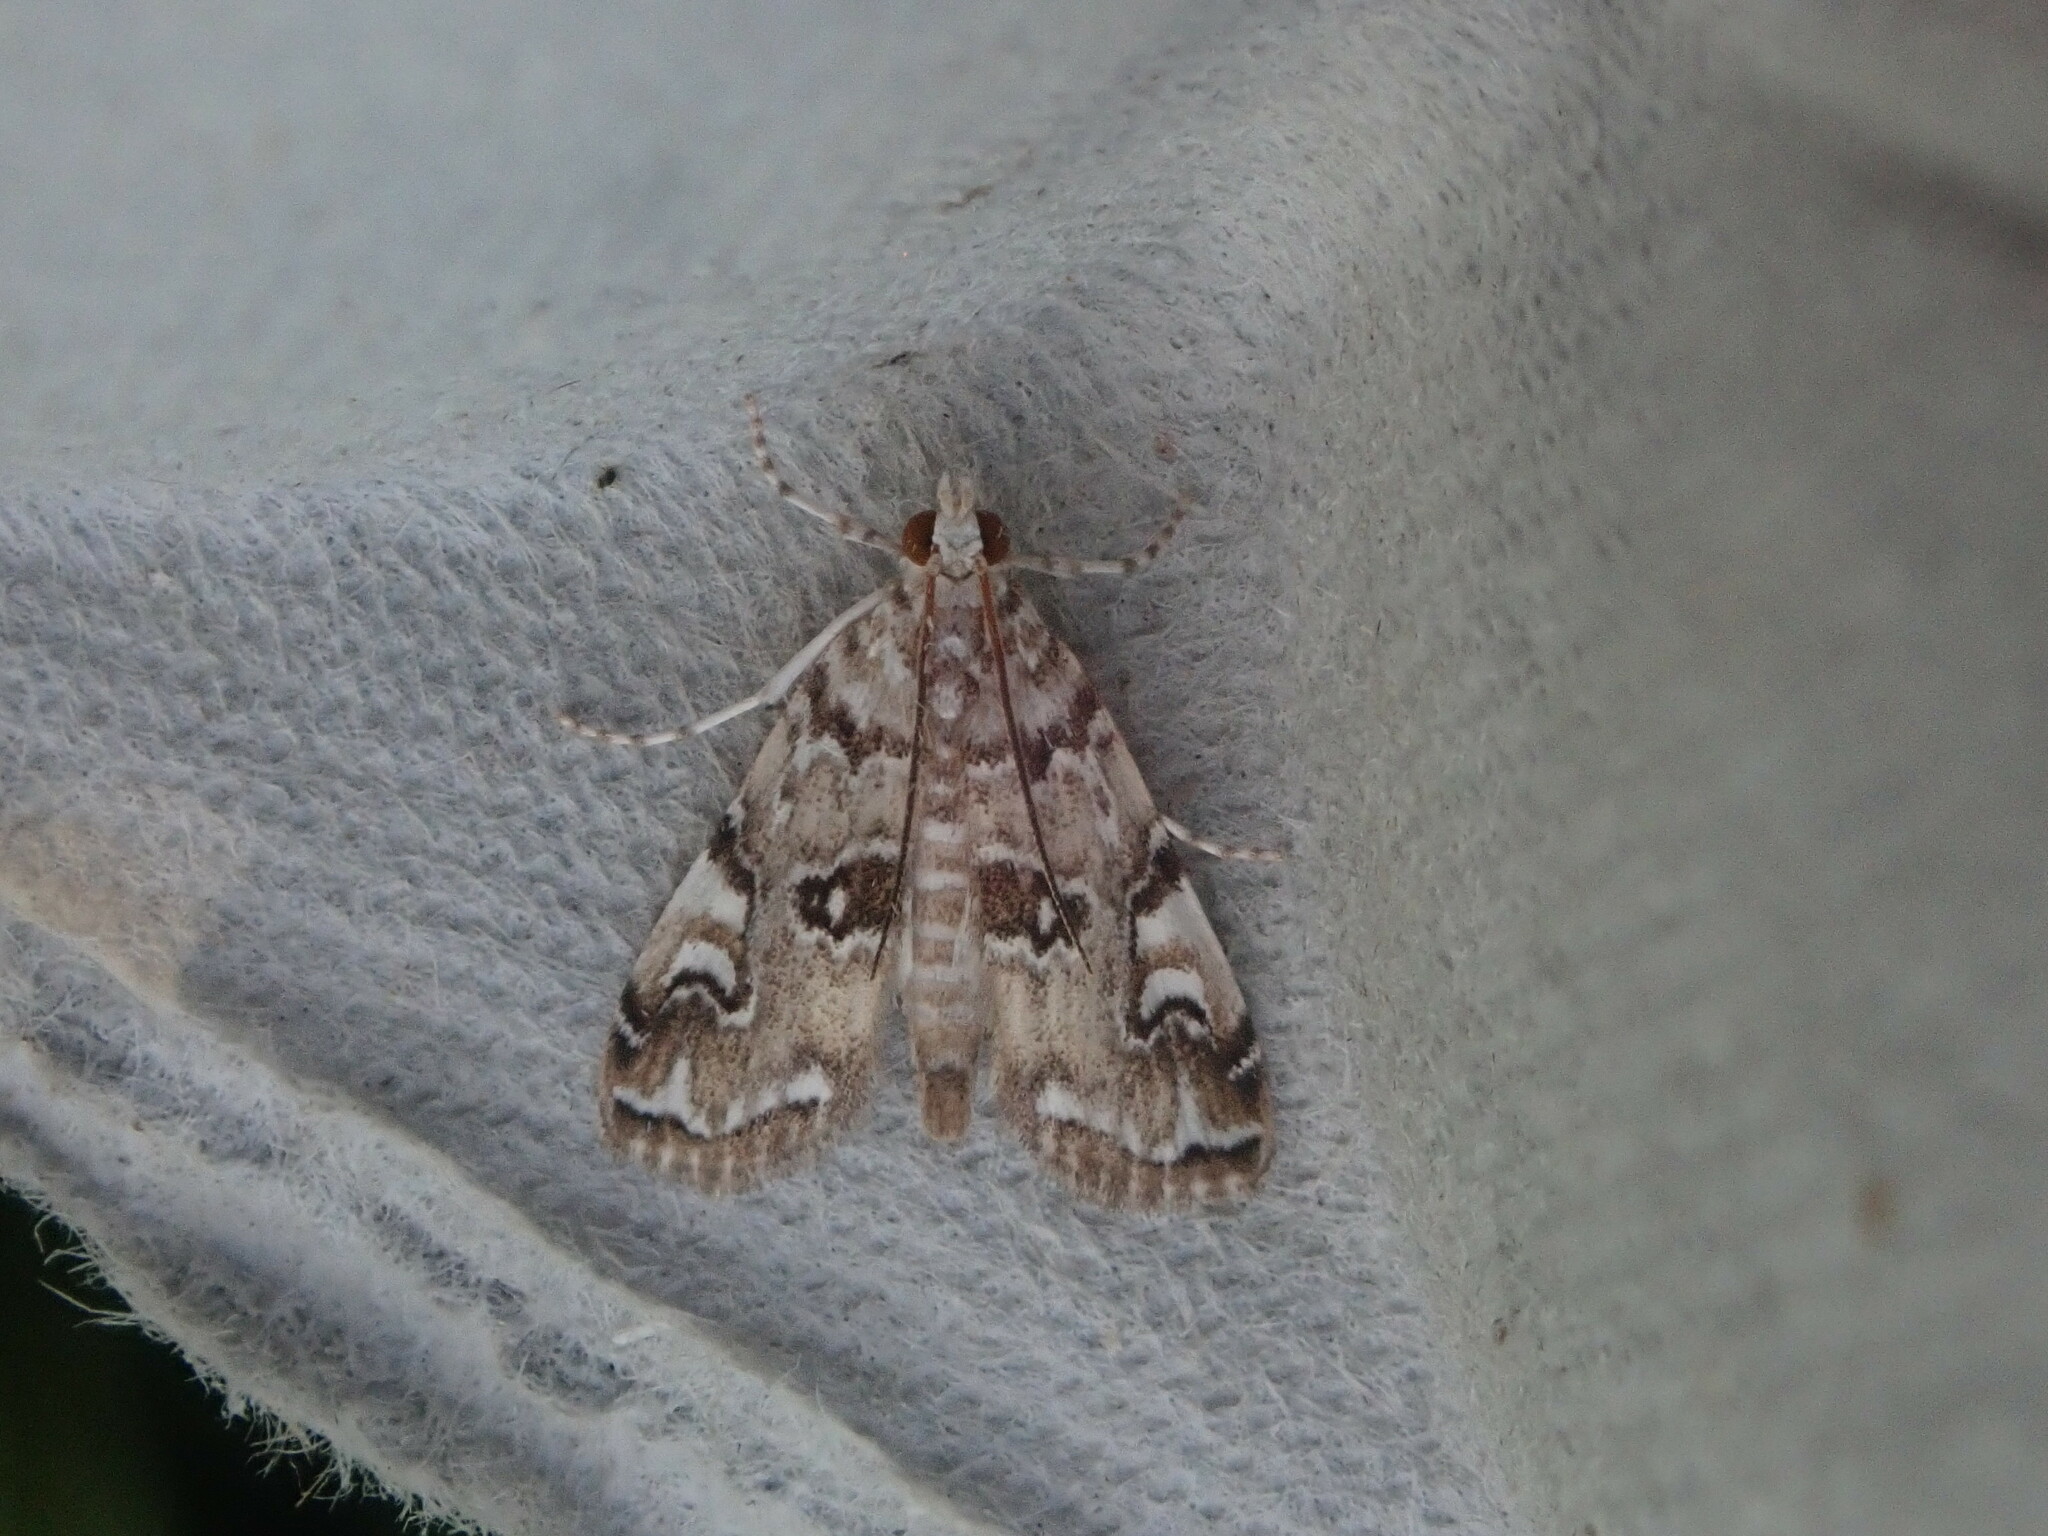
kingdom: Animalia
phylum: Arthropoda
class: Insecta
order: Lepidoptera
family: Crambidae
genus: Elophila
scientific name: Elophila gyralis
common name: Waterlily borer moth
